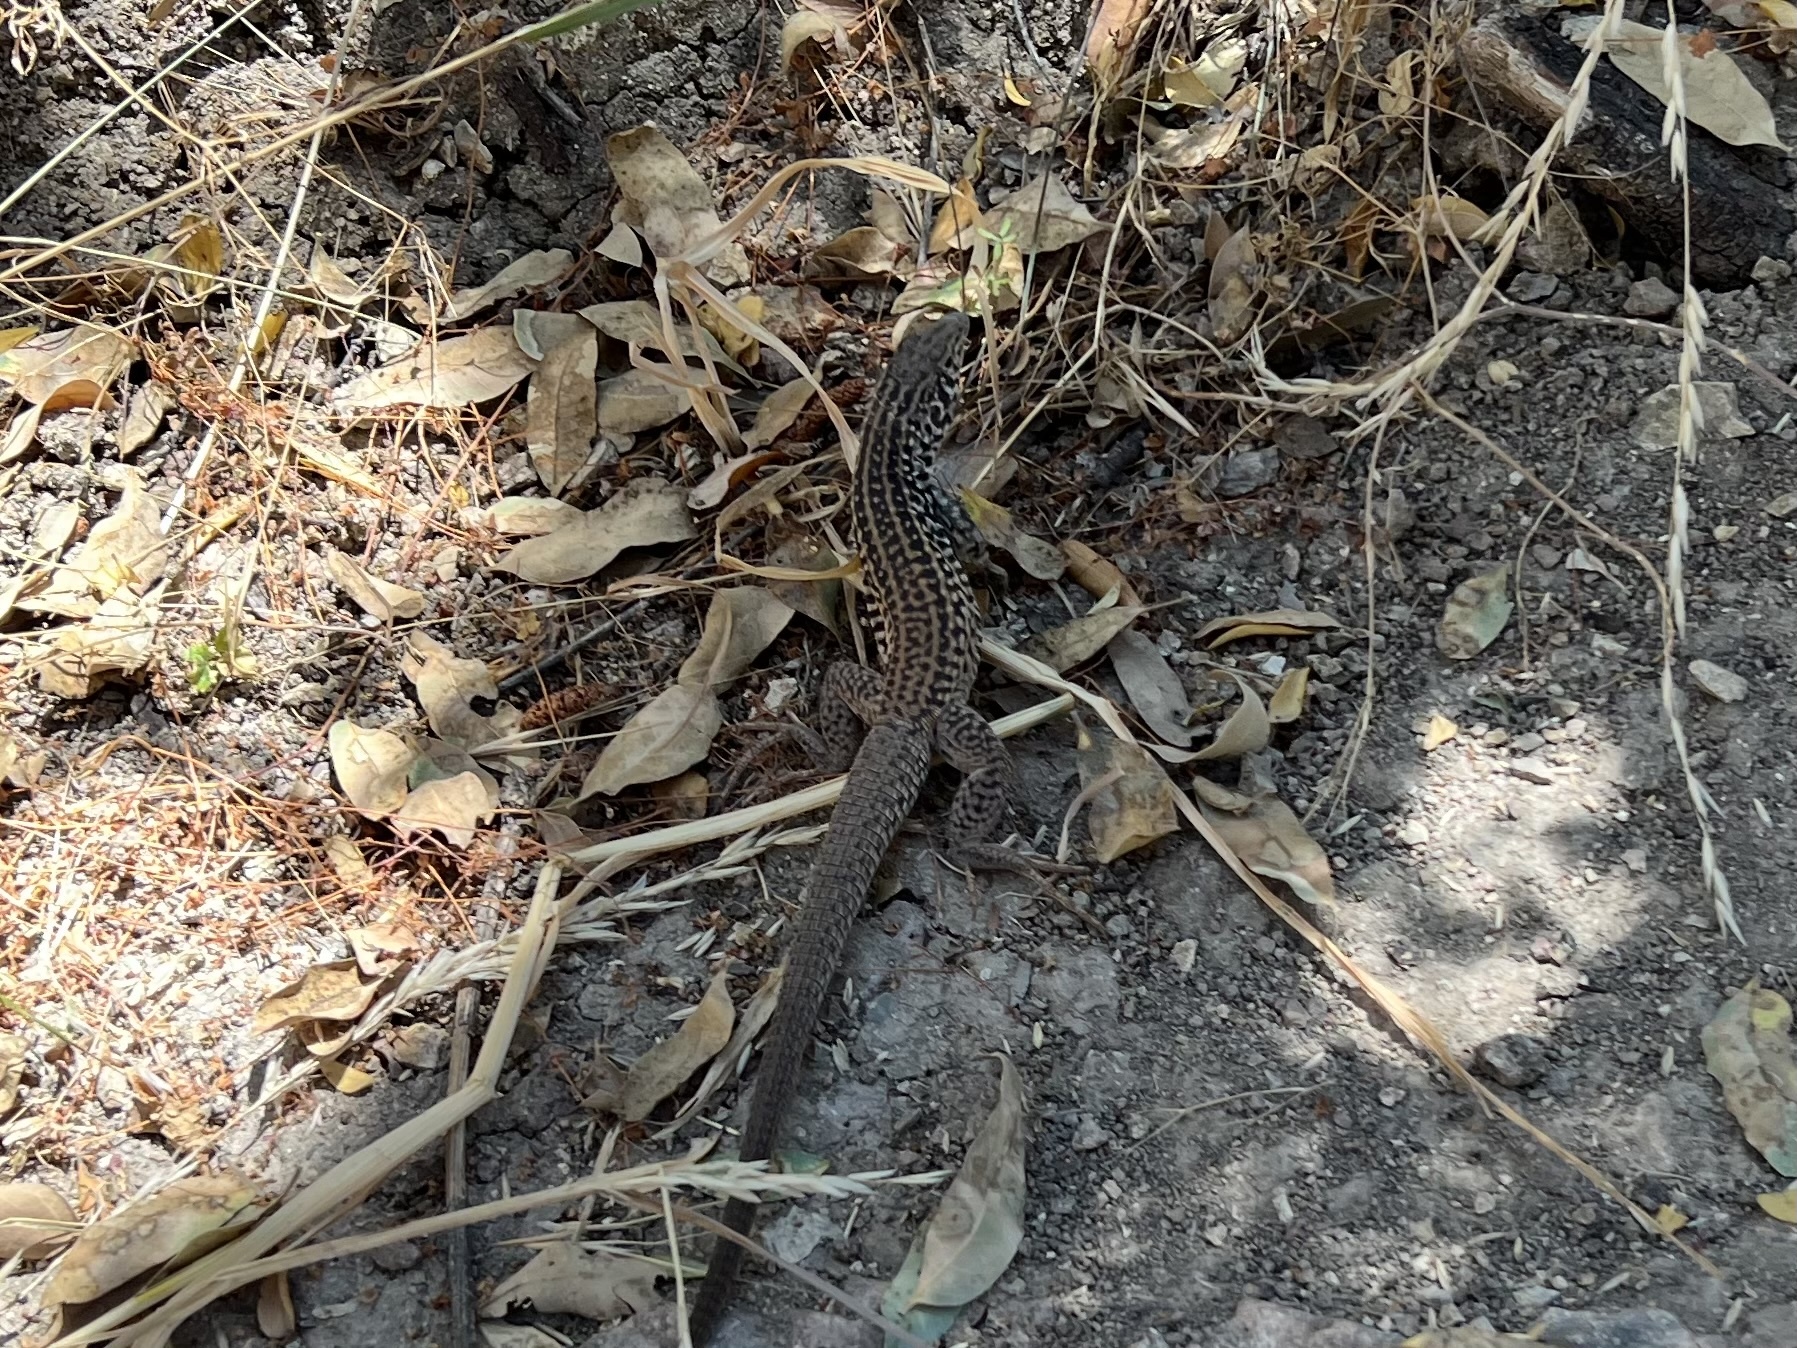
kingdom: Animalia
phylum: Chordata
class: Squamata
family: Teiidae
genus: Aspidoscelis
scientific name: Aspidoscelis tigris
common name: Tiger whiptail
